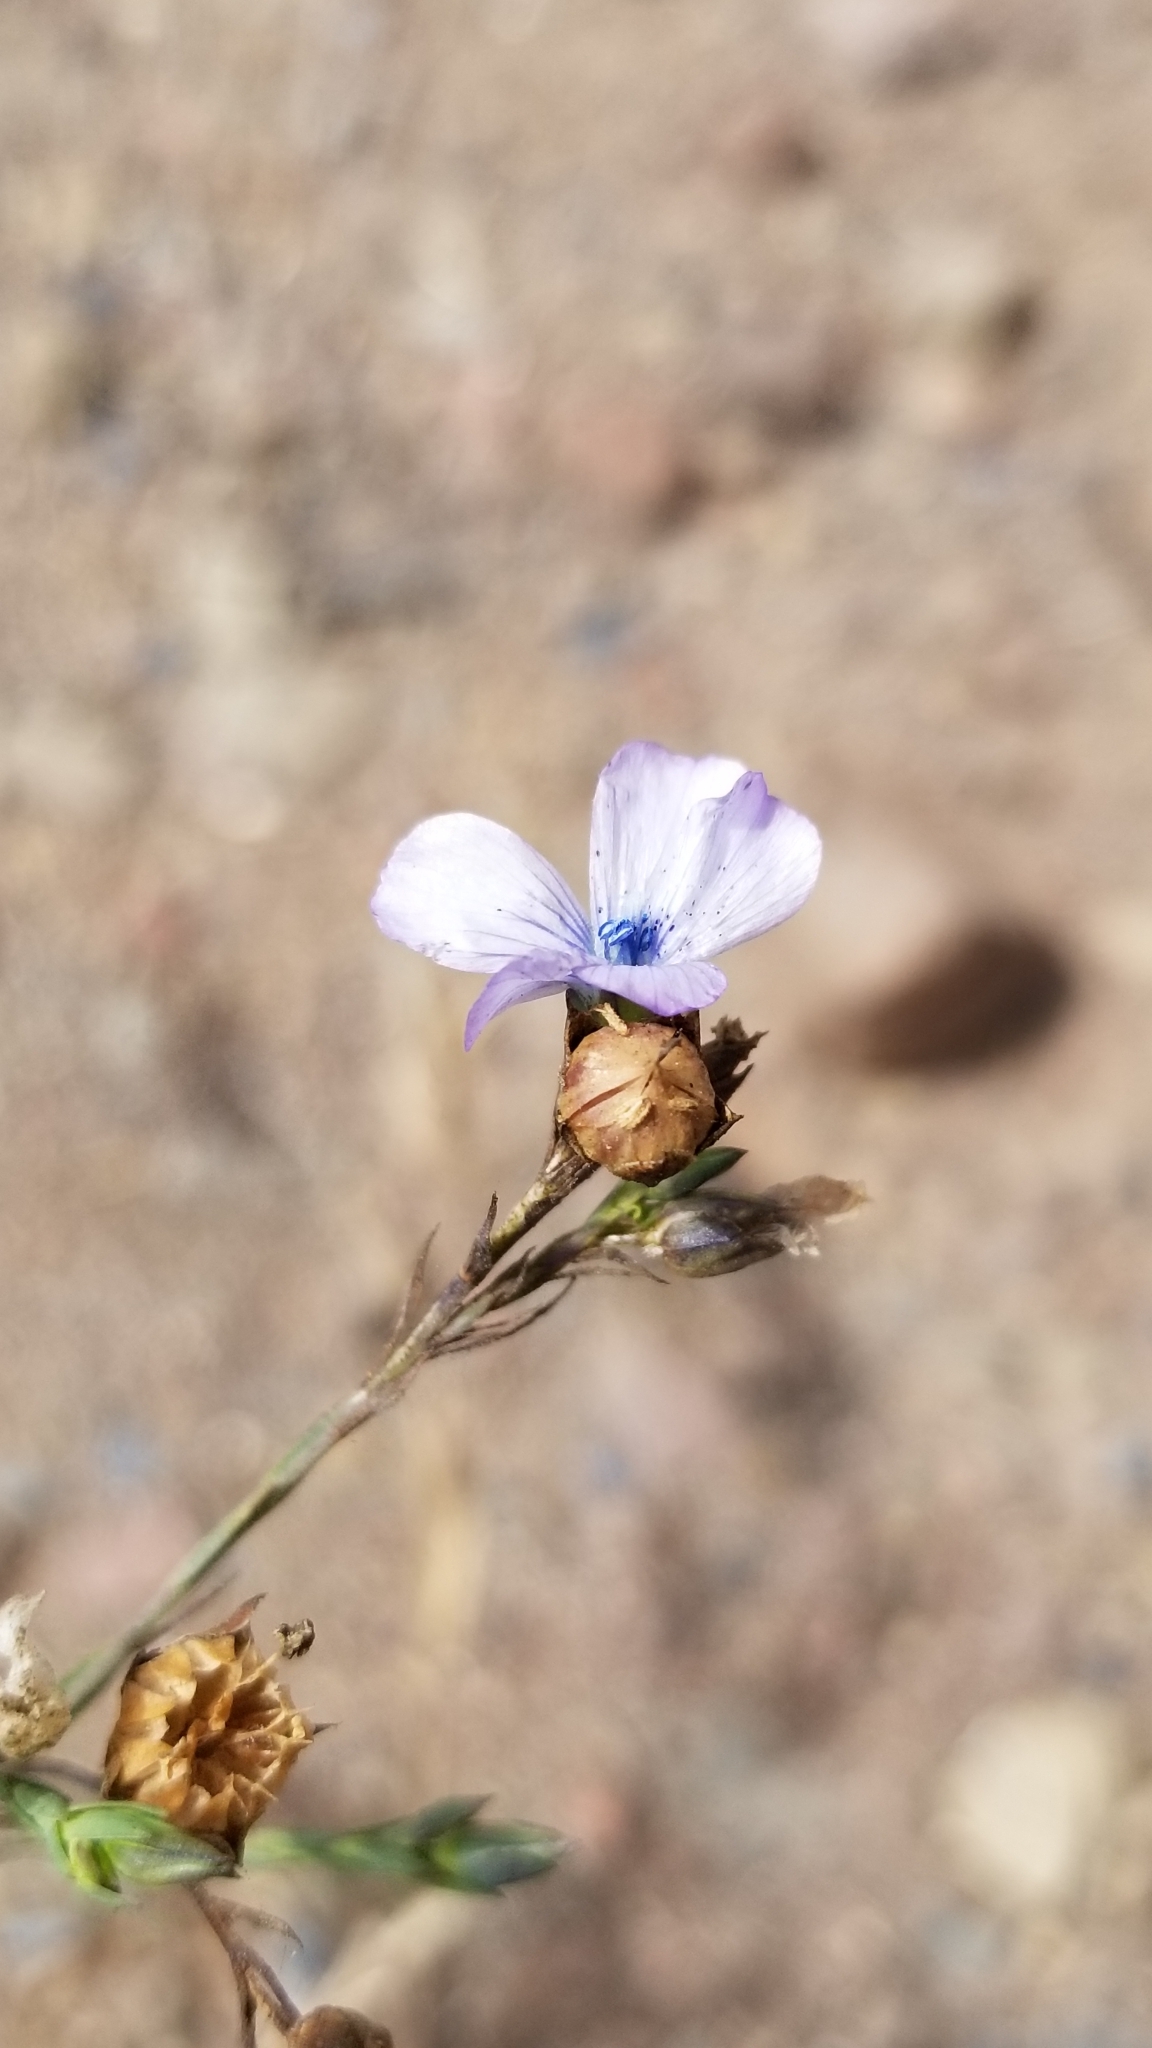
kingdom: Plantae
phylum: Tracheophyta
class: Magnoliopsida
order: Malpighiales
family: Linaceae
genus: Linum
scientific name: Linum bienne
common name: Pale flax
